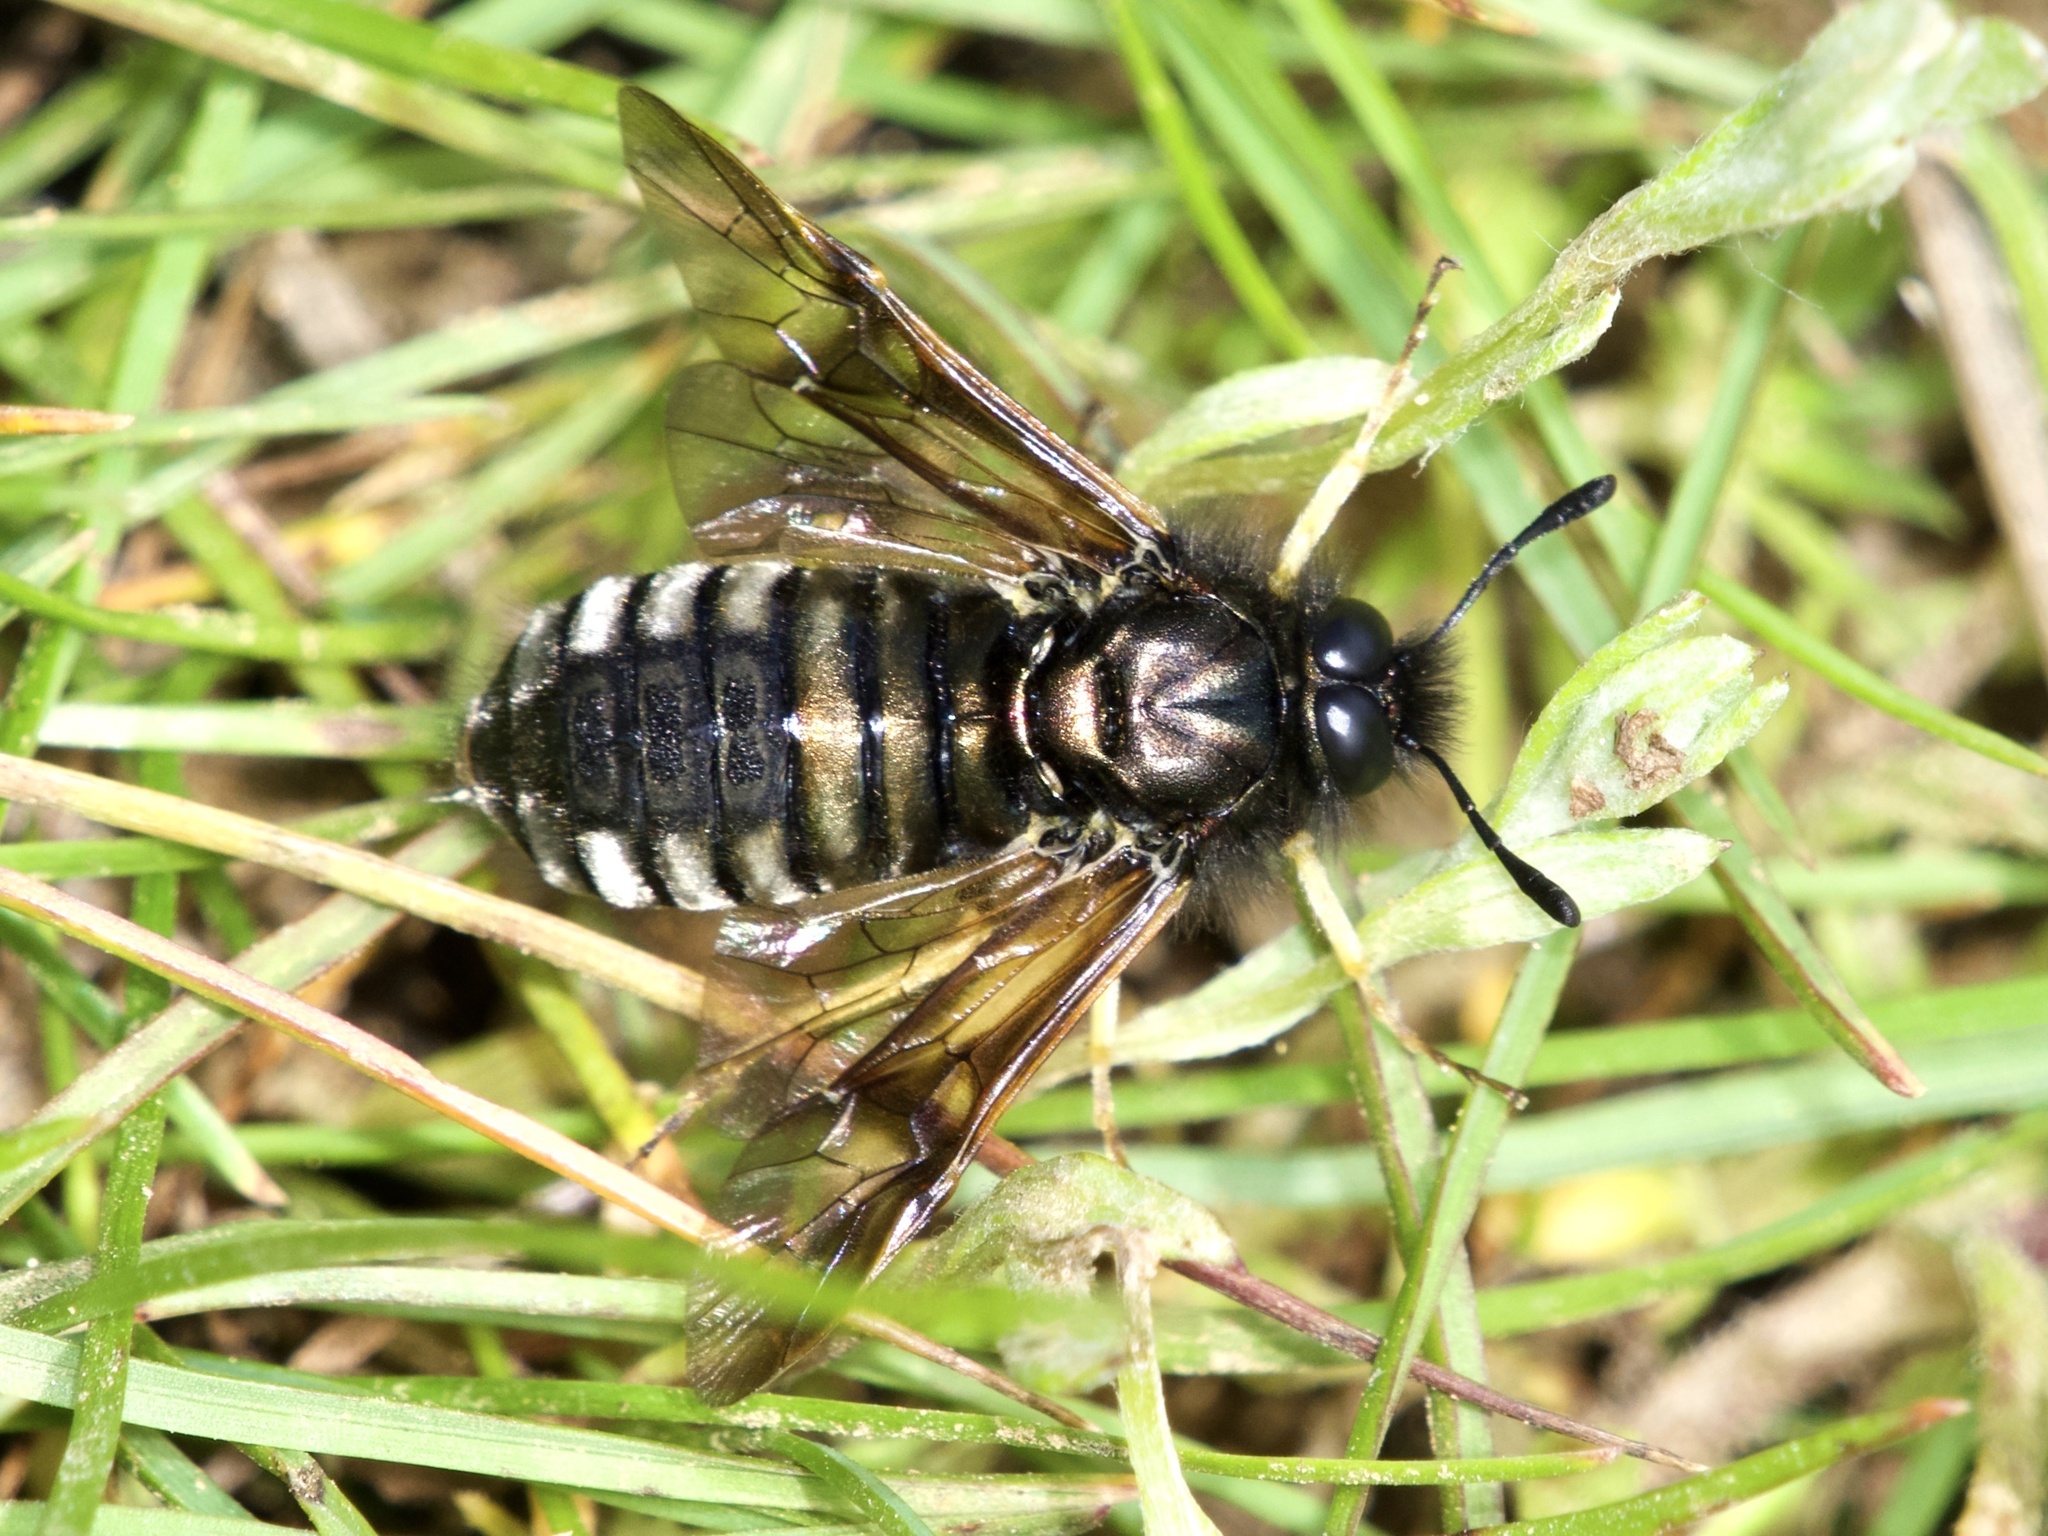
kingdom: Animalia
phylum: Arthropoda
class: Insecta
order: Hymenoptera
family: Cimbicidae
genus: Abia
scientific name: Abia americana
